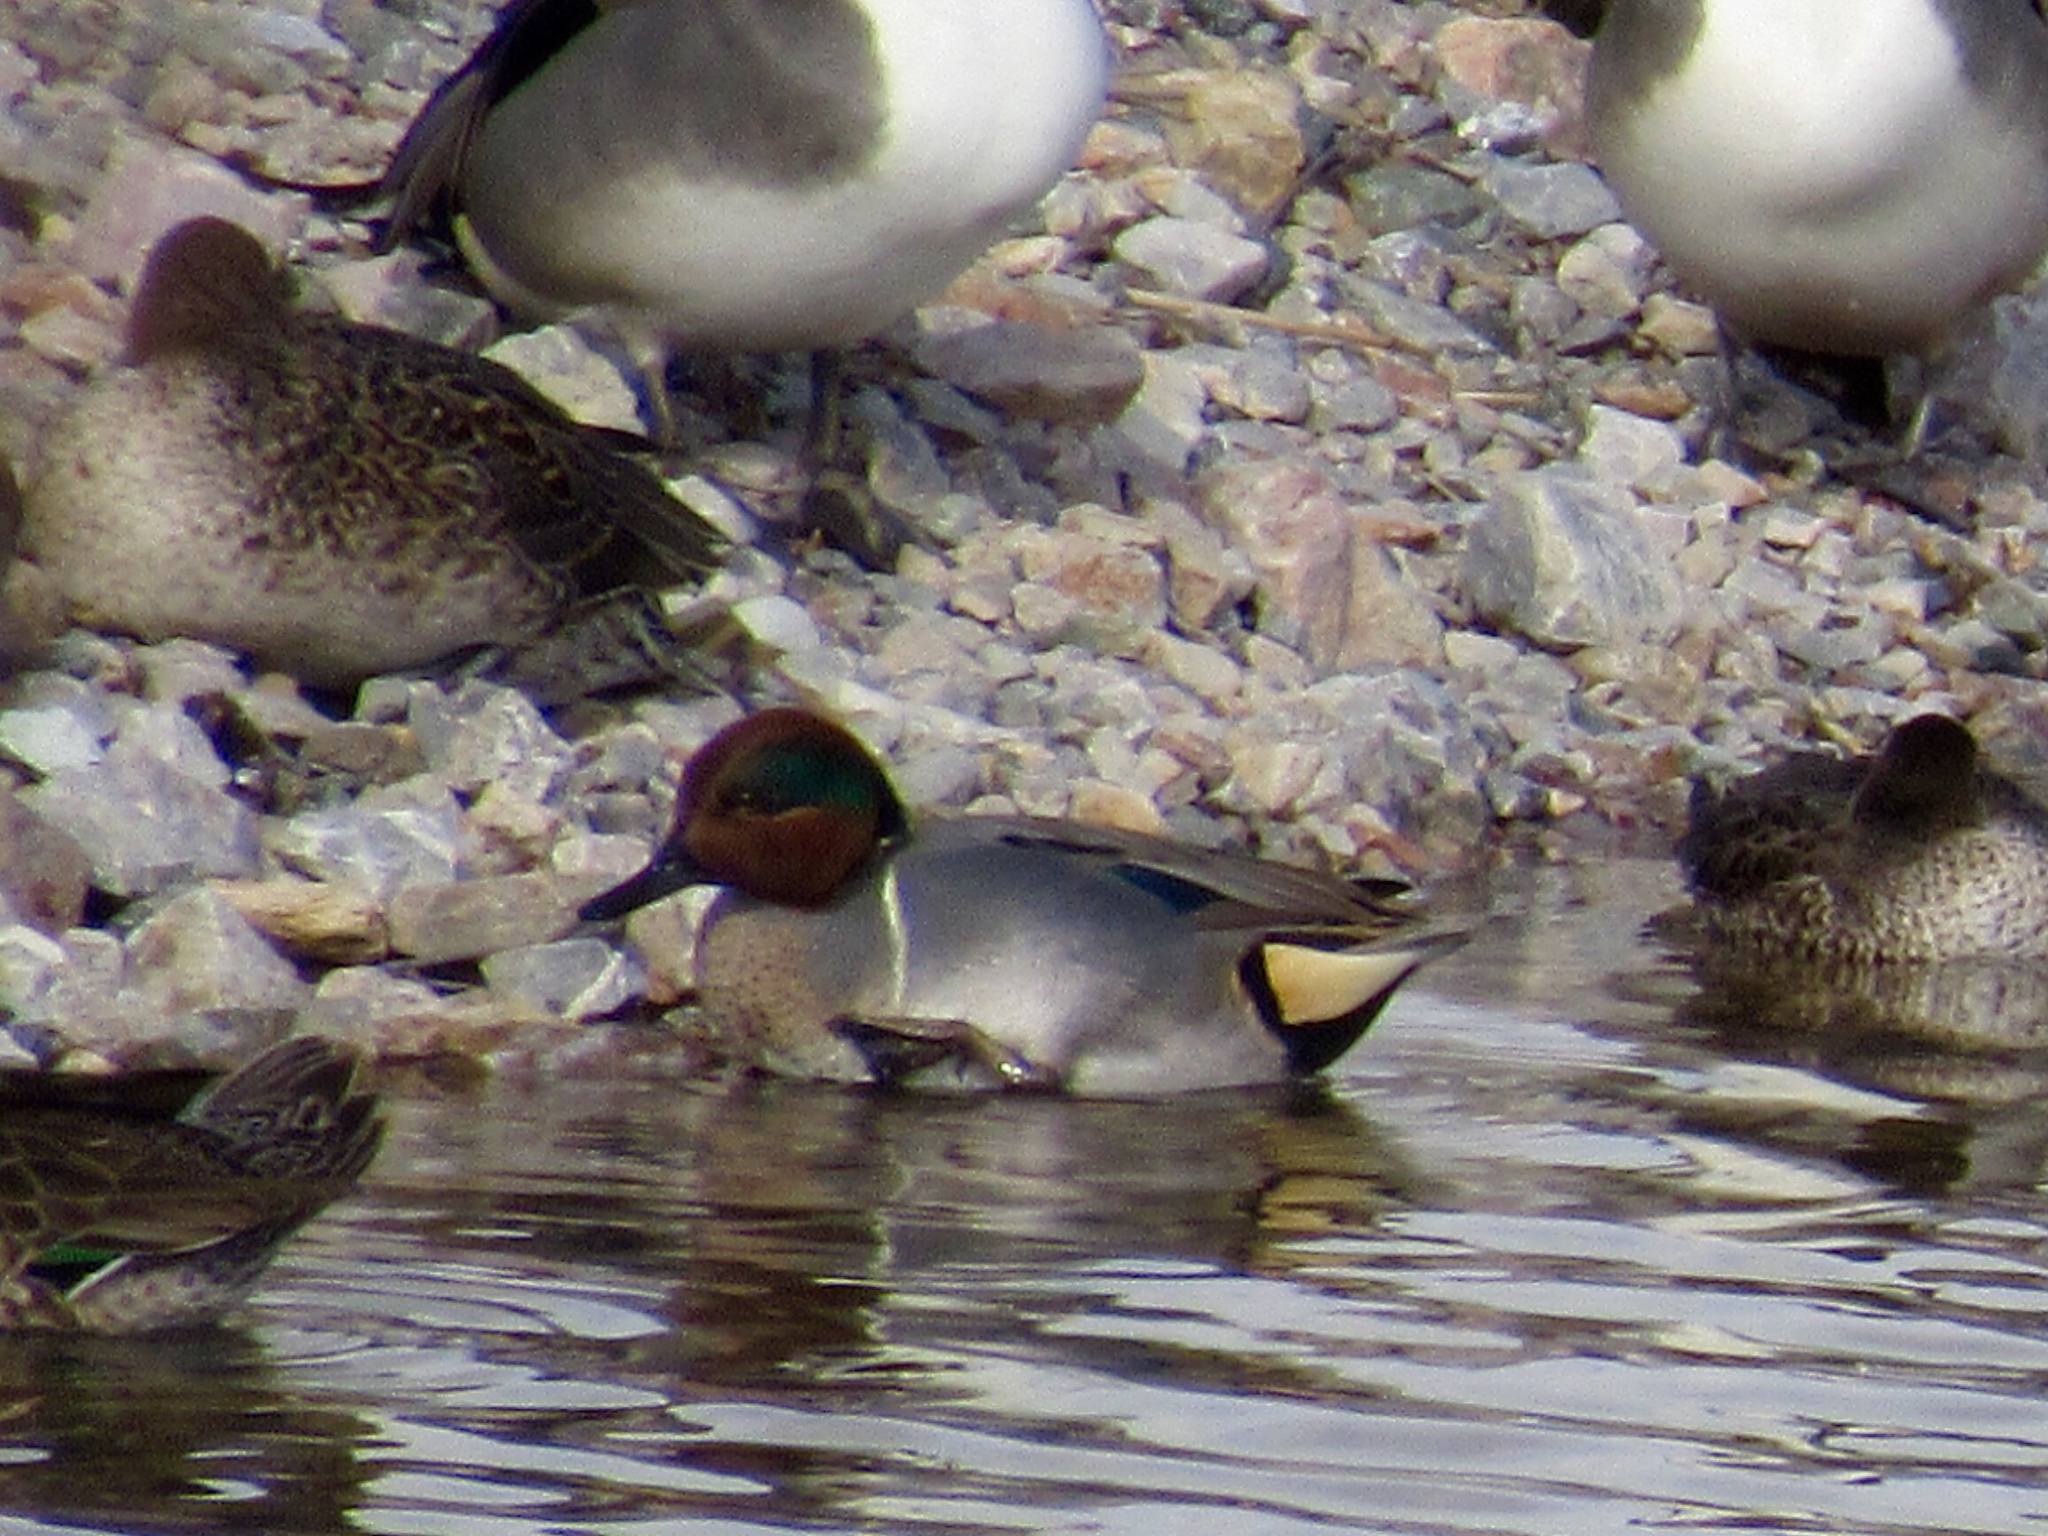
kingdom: Animalia
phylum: Chordata
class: Aves
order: Anseriformes
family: Anatidae
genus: Anas
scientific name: Anas crecca
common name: Eurasian teal
